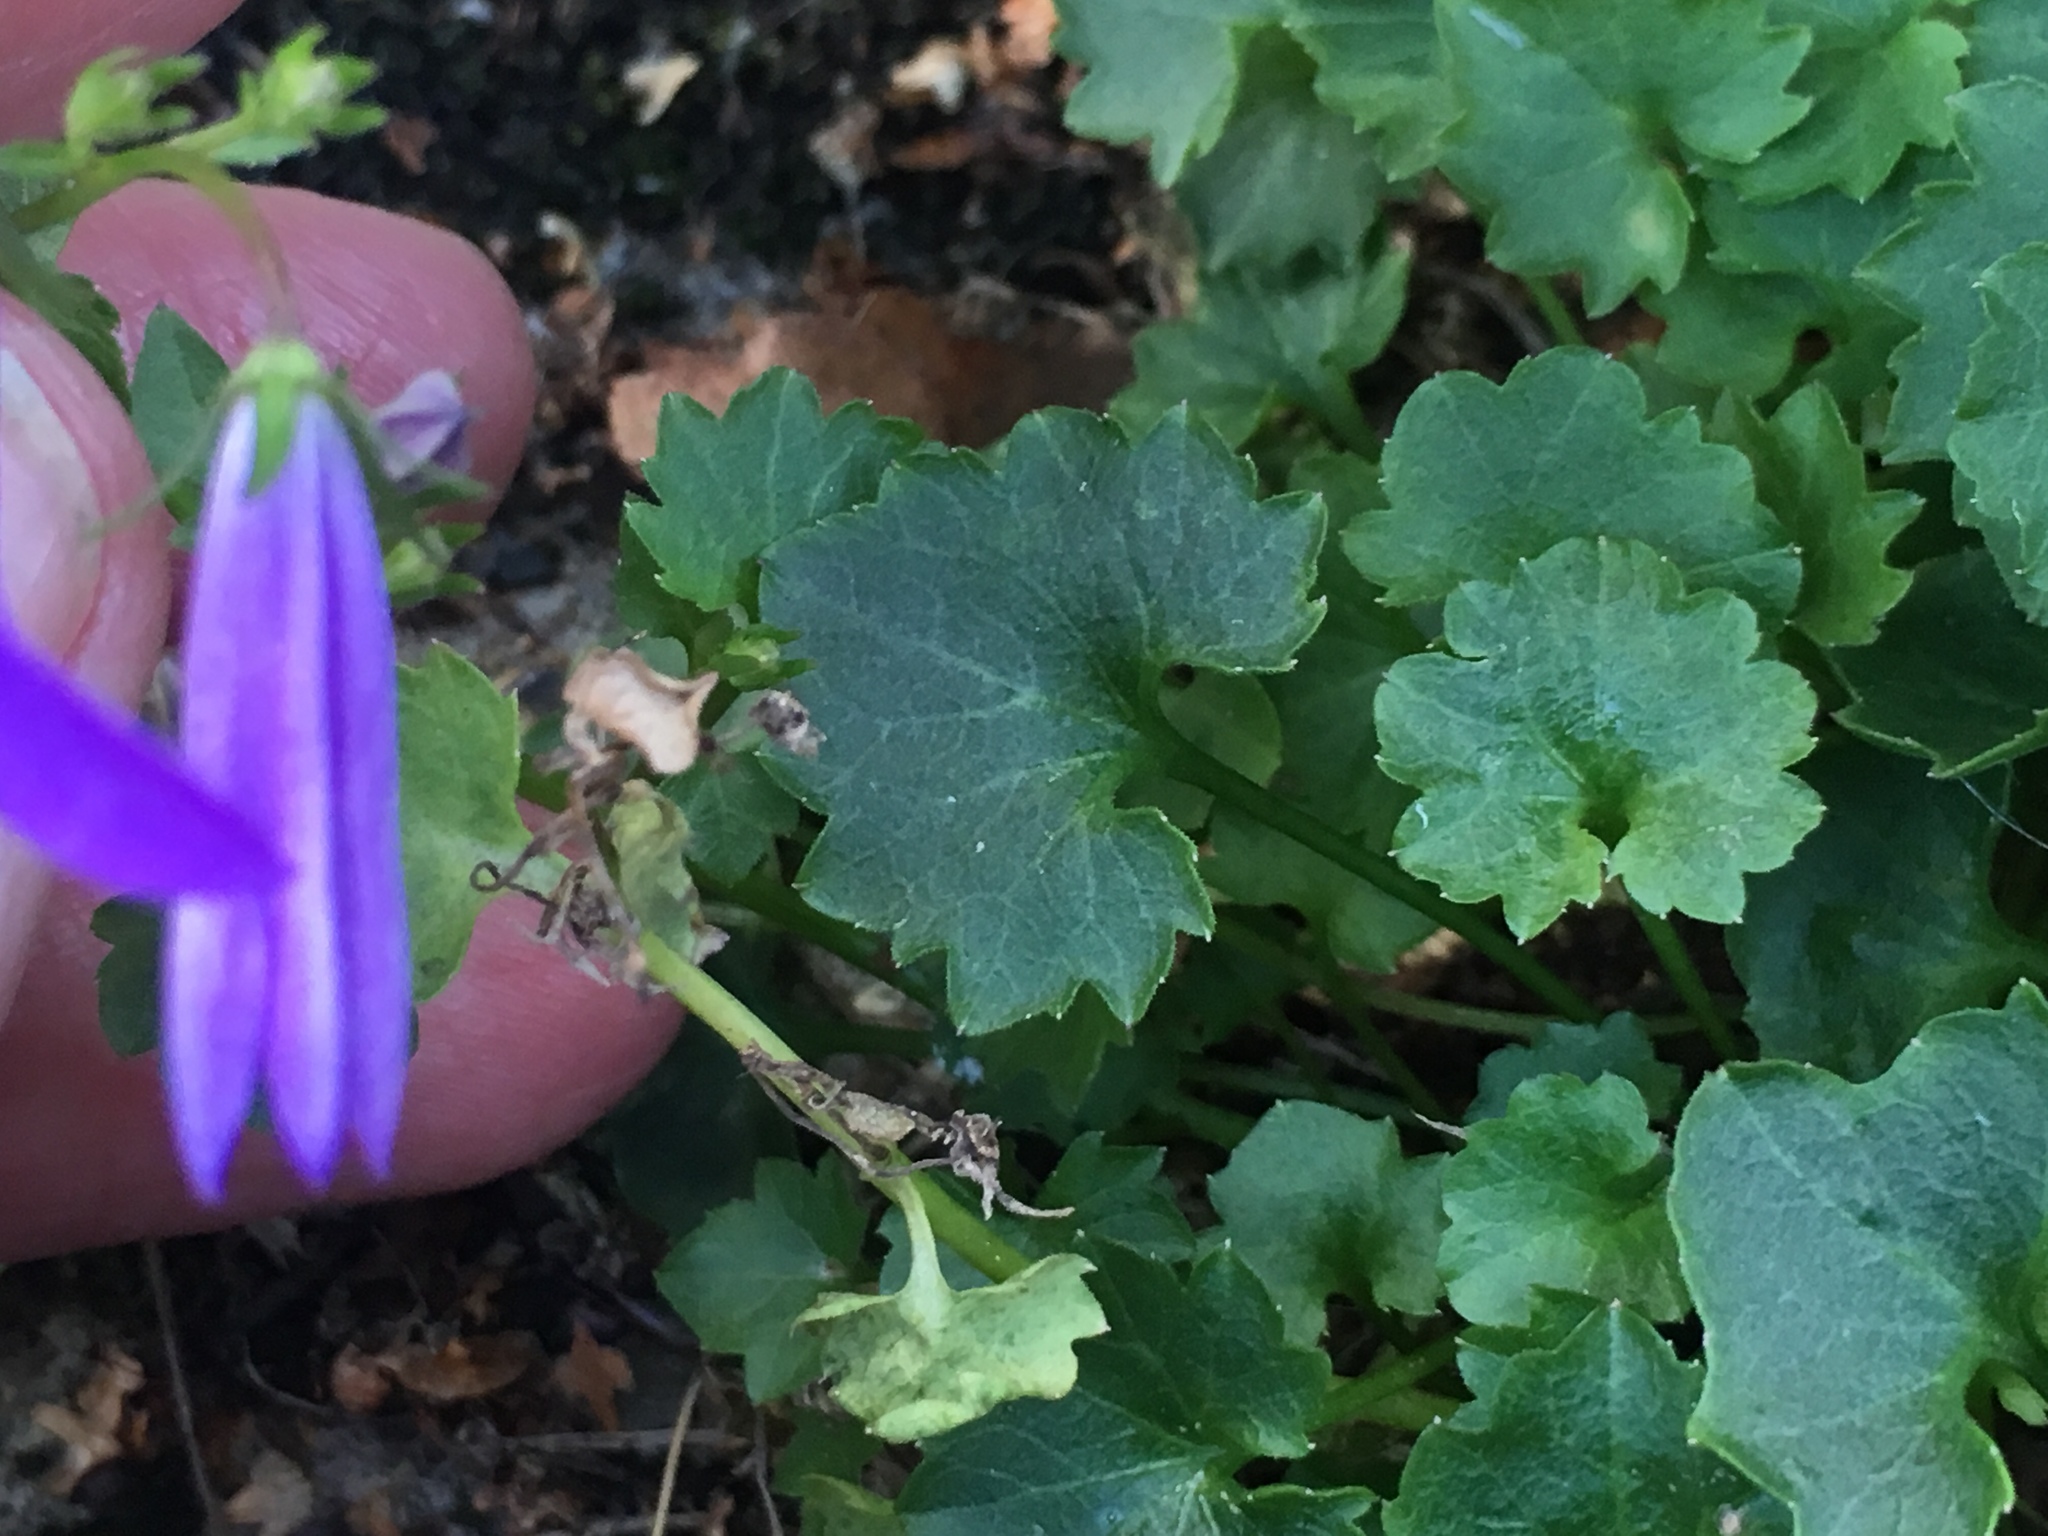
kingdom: Plantae
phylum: Tracheophyta
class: Magnoliopsida
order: Asterales
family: Campanulaceae
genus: Campanula
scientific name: Campanula poscharskyana
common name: Trailing bellflower
